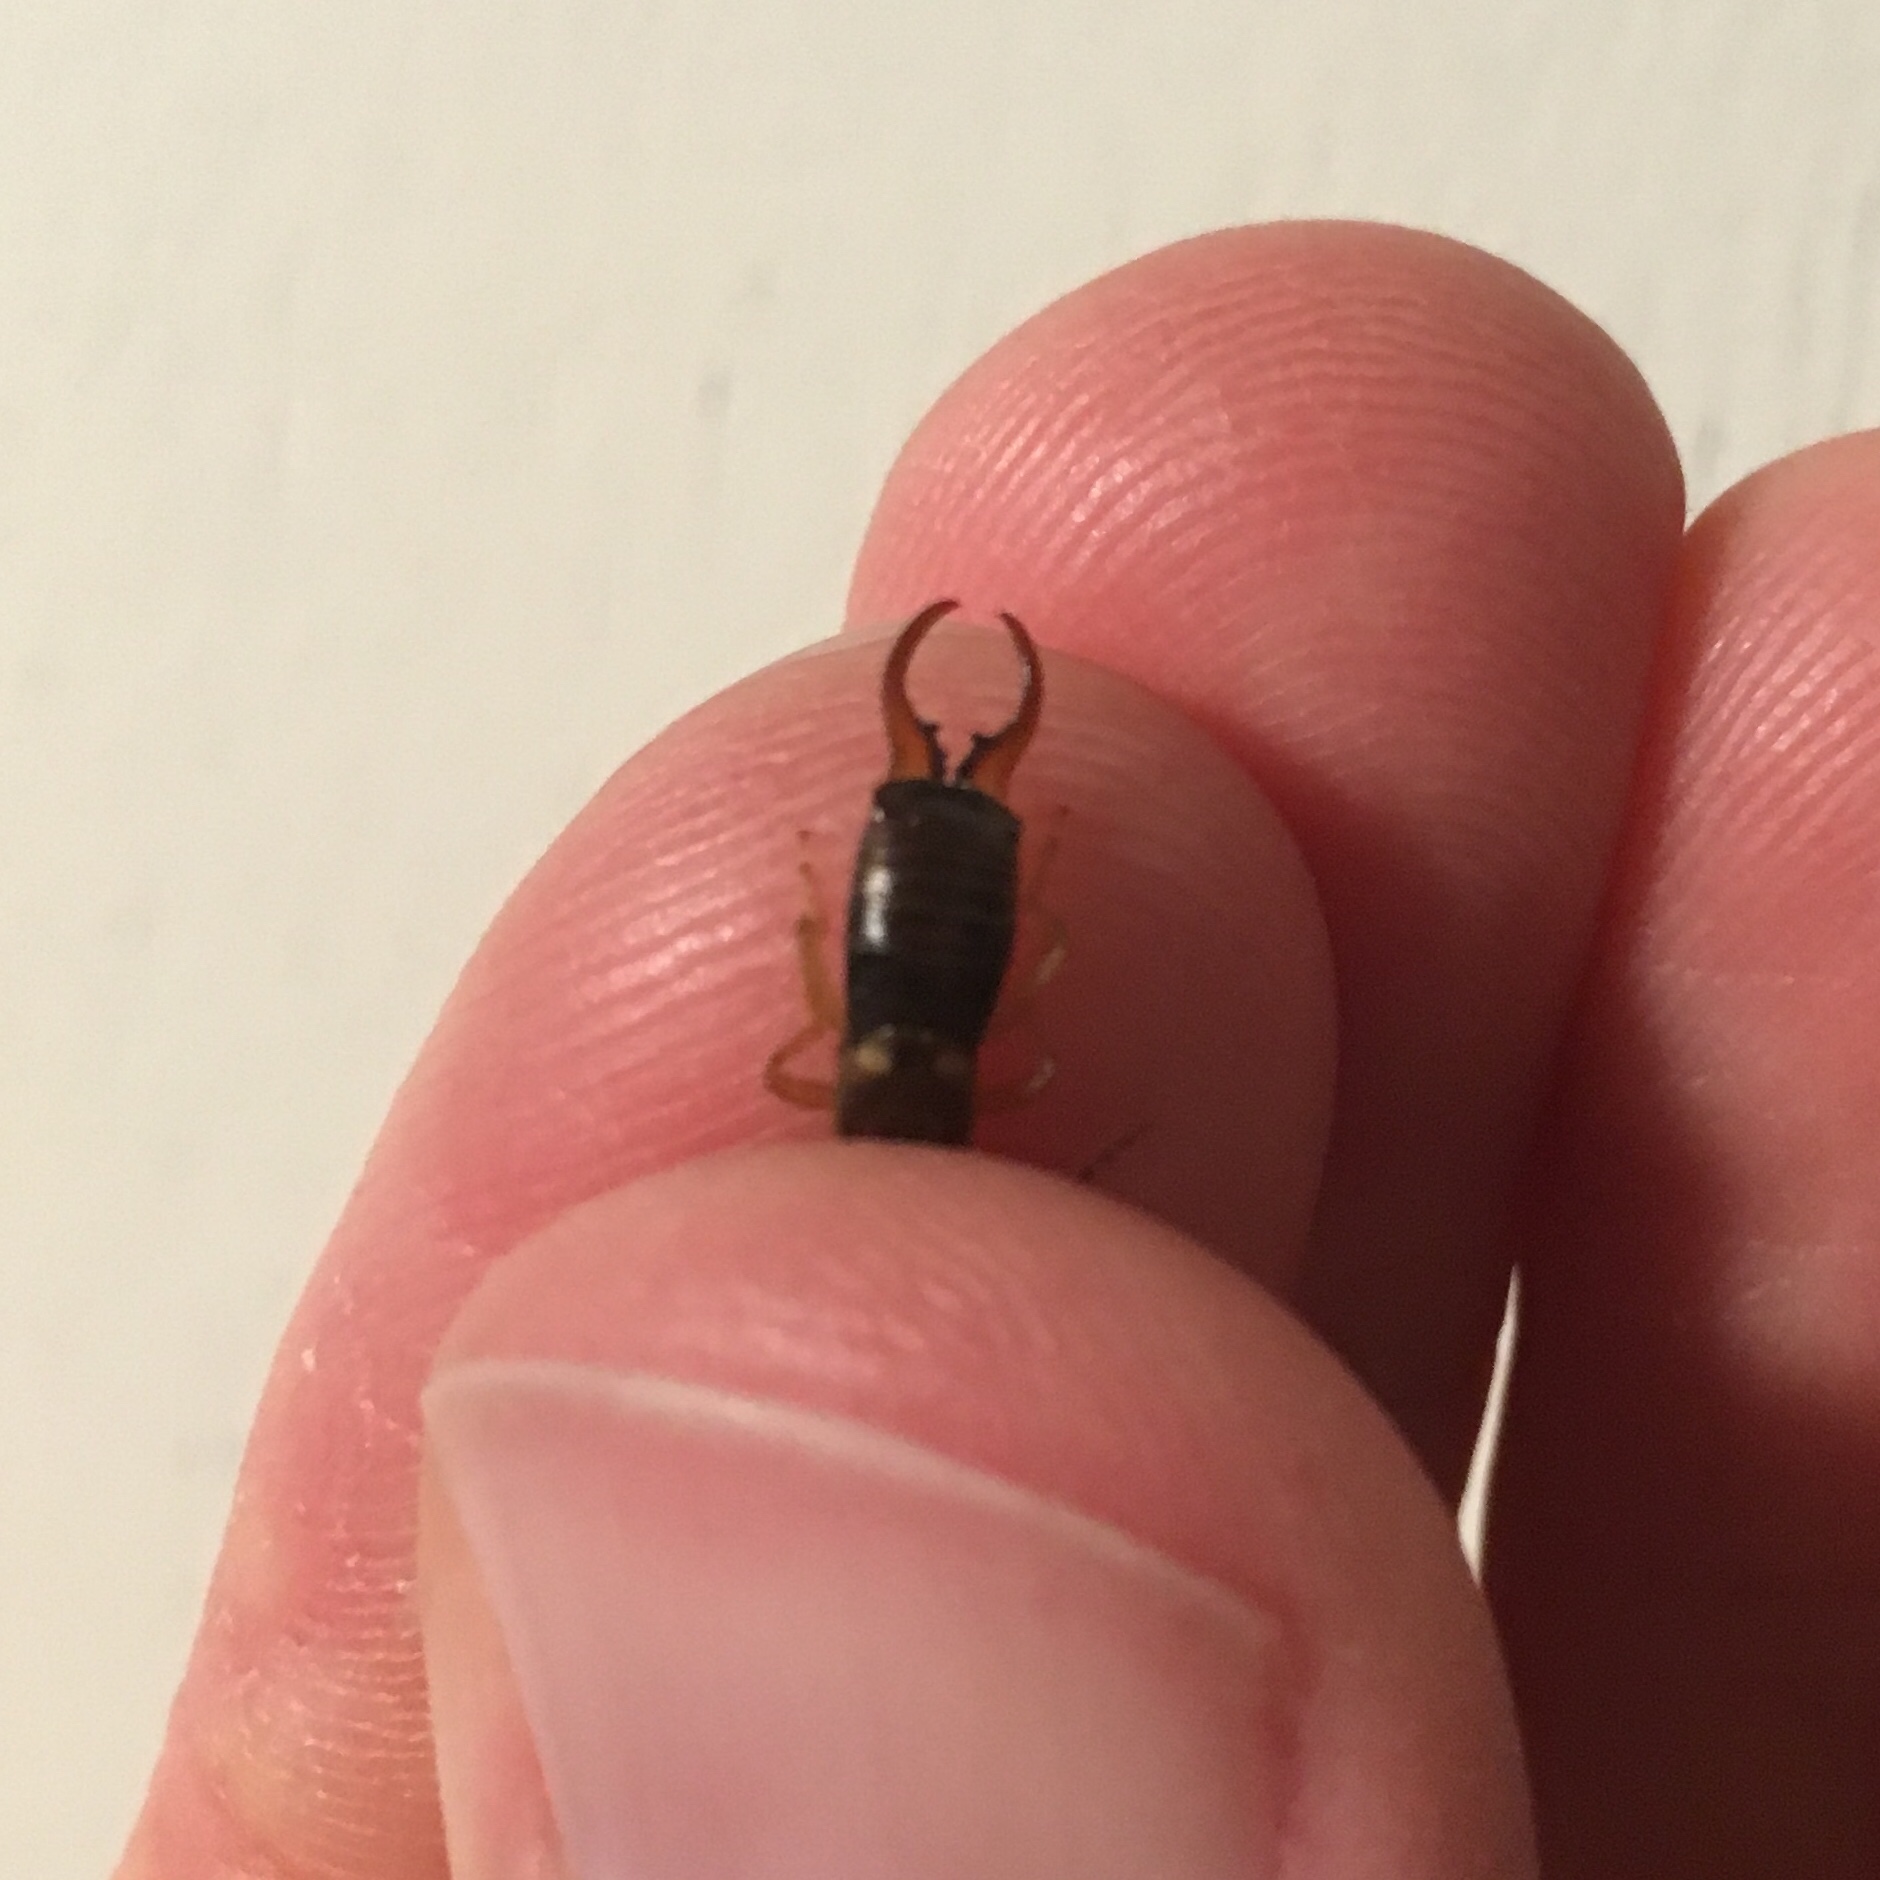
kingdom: Animalia
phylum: Arthropoda
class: Insecta
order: Dermaptera
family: Forficulidae
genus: Forficula
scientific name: Forficula
